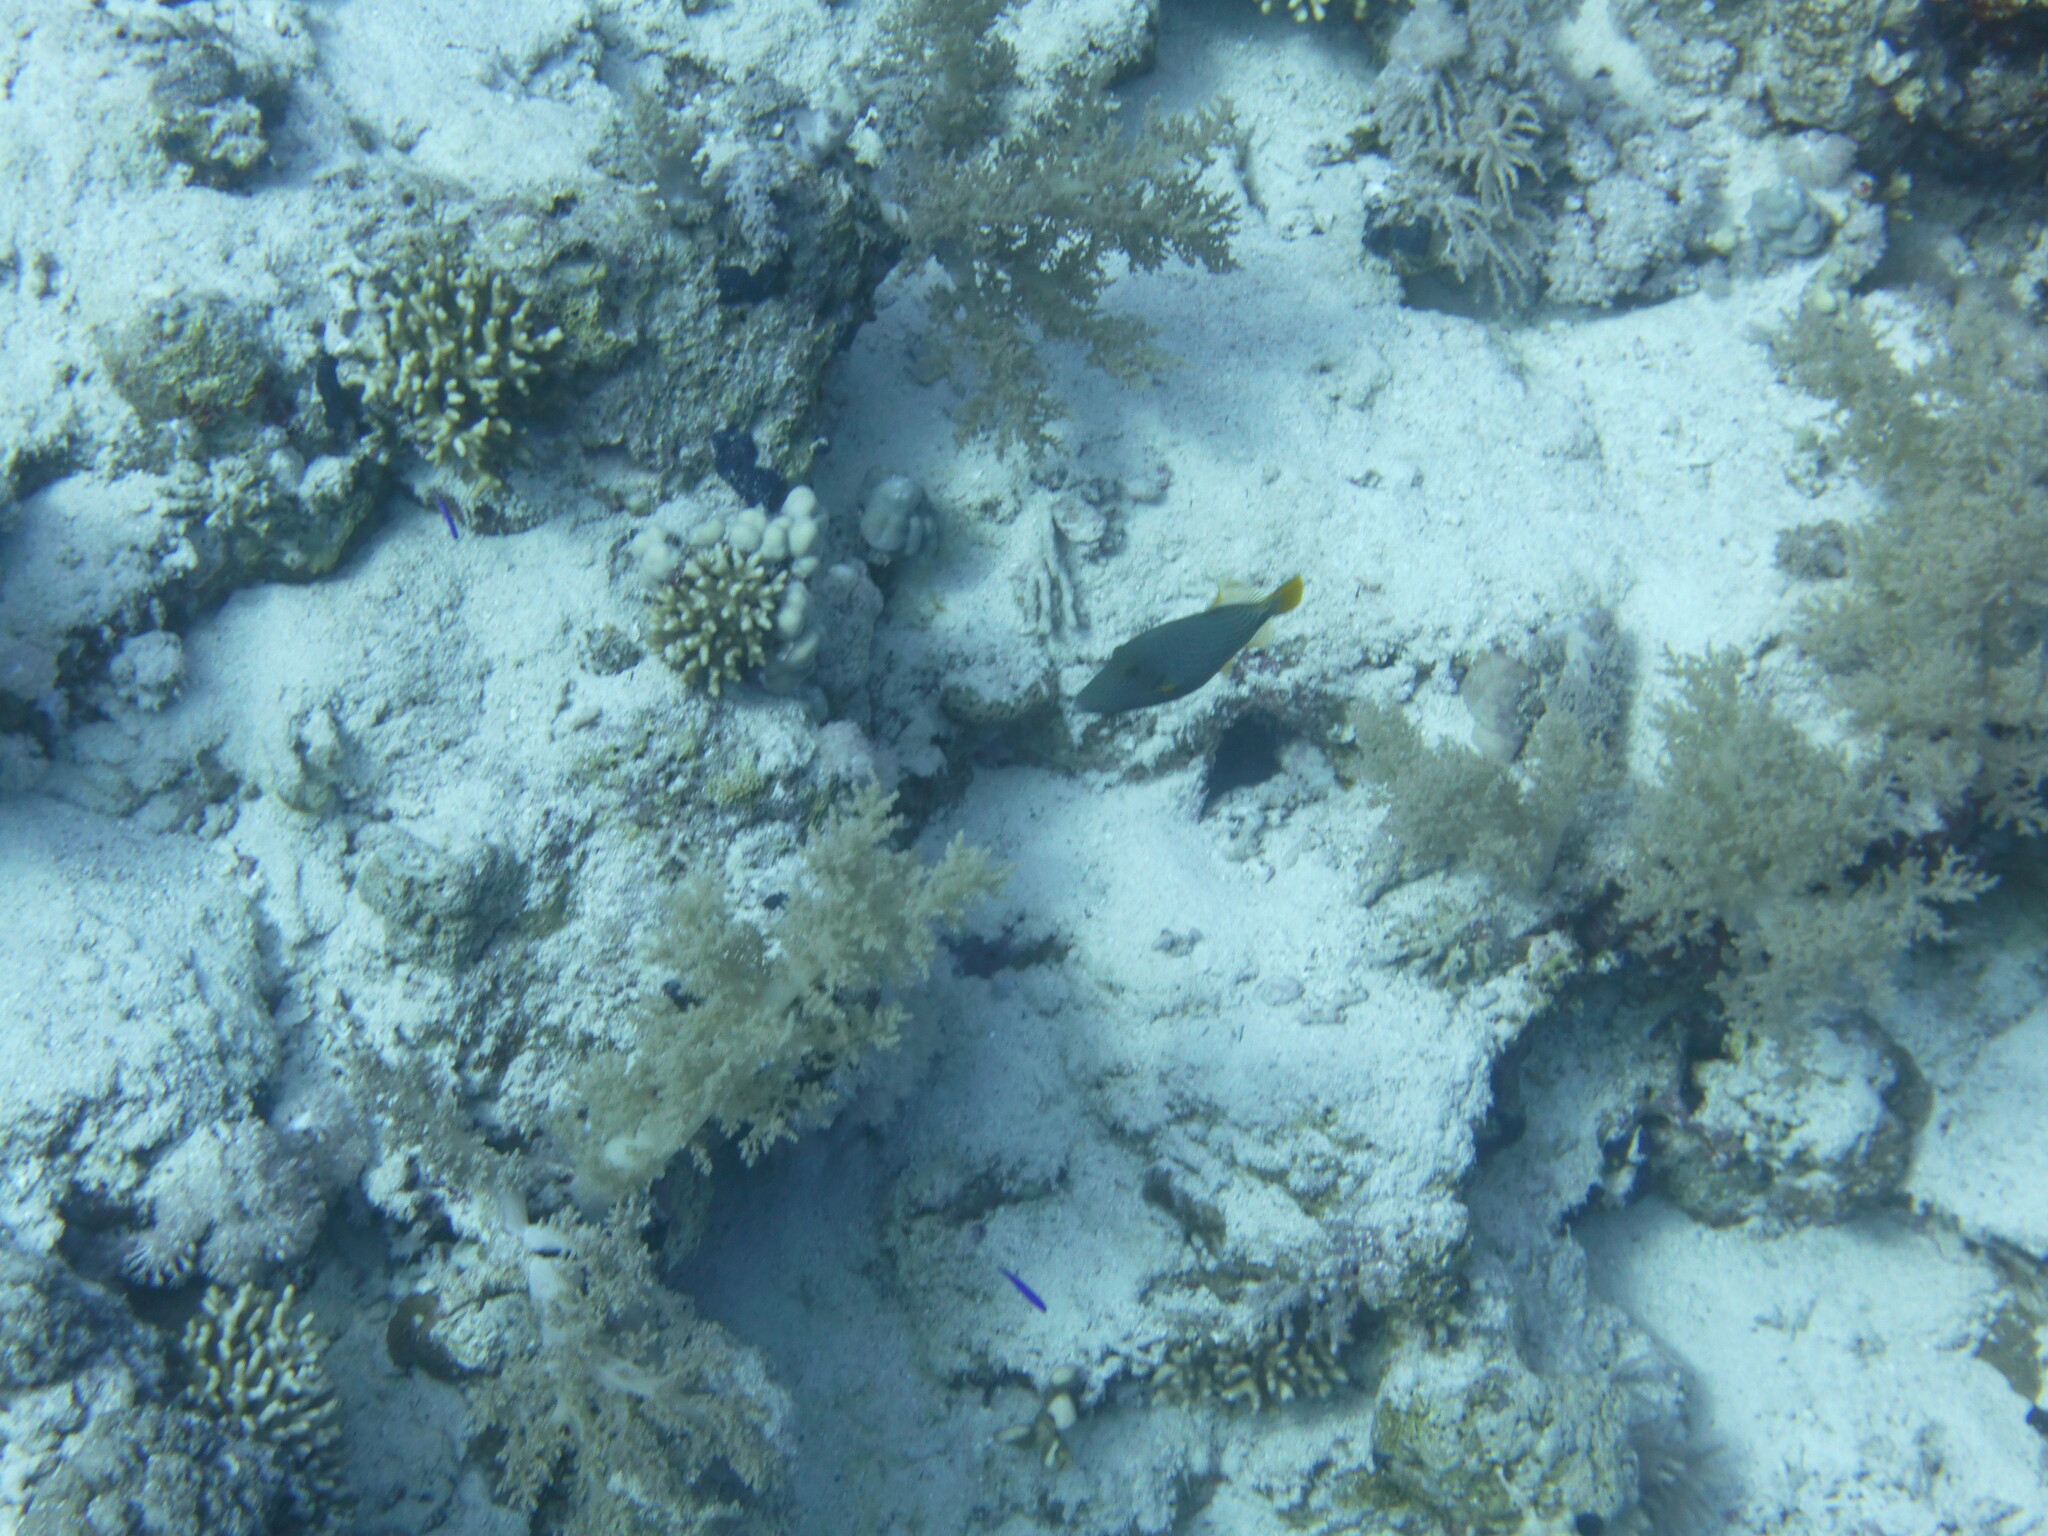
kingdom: Animalia
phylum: Chordata
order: Tetraodontiformes
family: Balistidae
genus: Balistapus
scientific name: Balistapus undulatus
